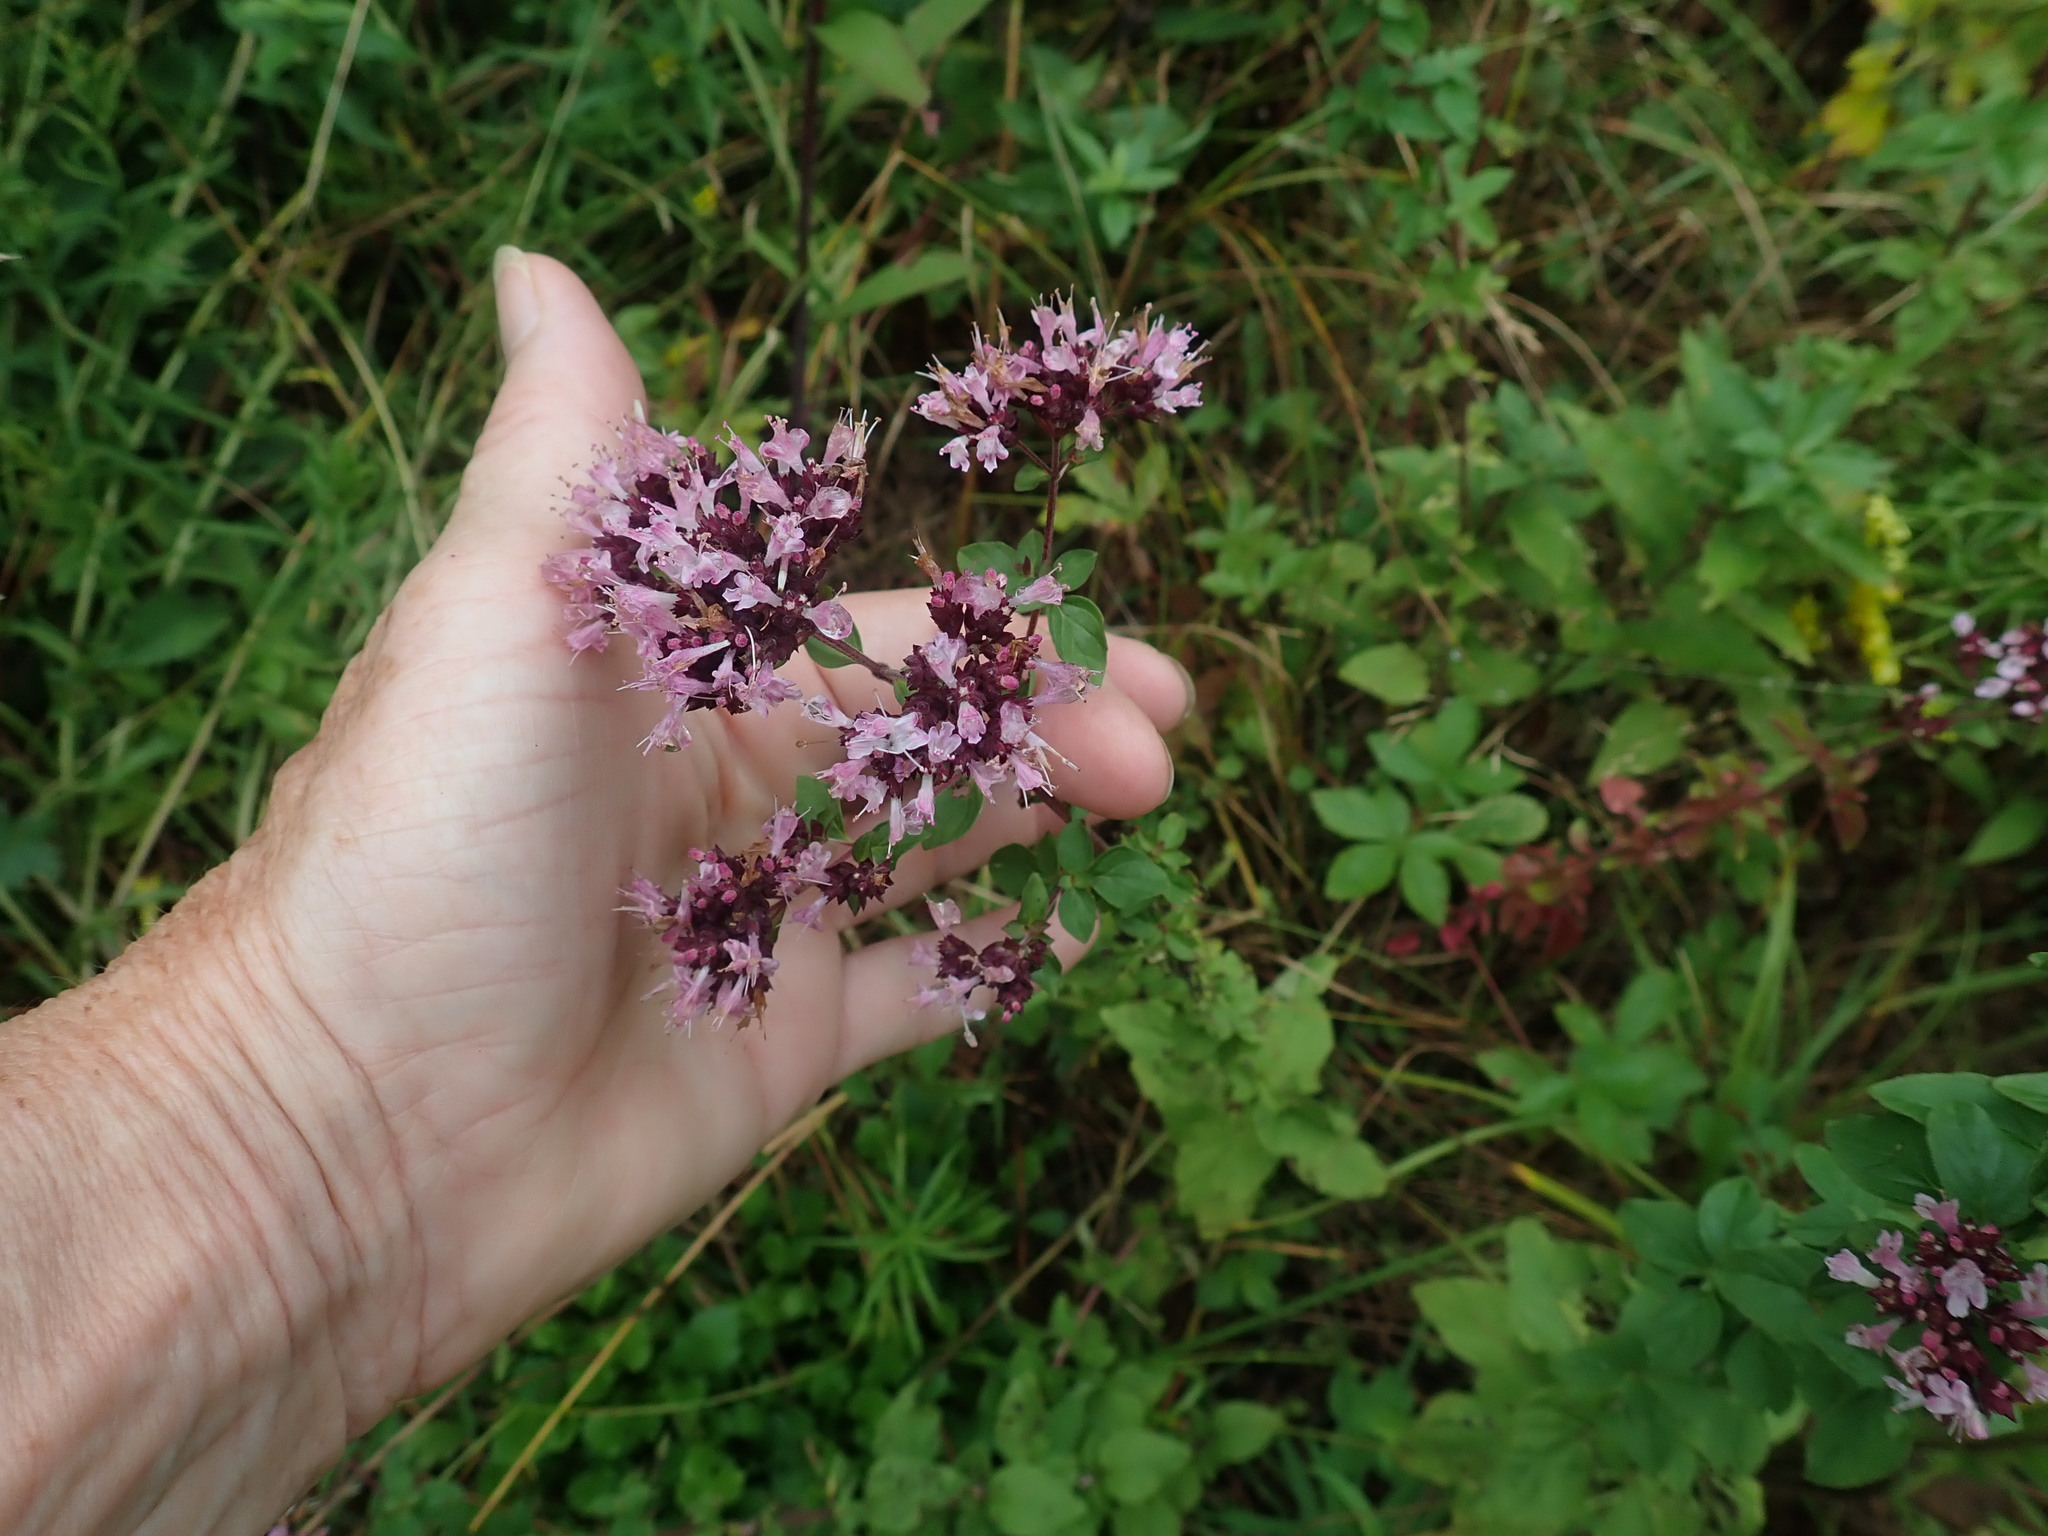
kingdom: Plantae
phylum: Tracheophyta
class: Magnoliopsida
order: Lamiales
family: Lamiaceae
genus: Origanum
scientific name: Origanum vulgare
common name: Wild marjoram
